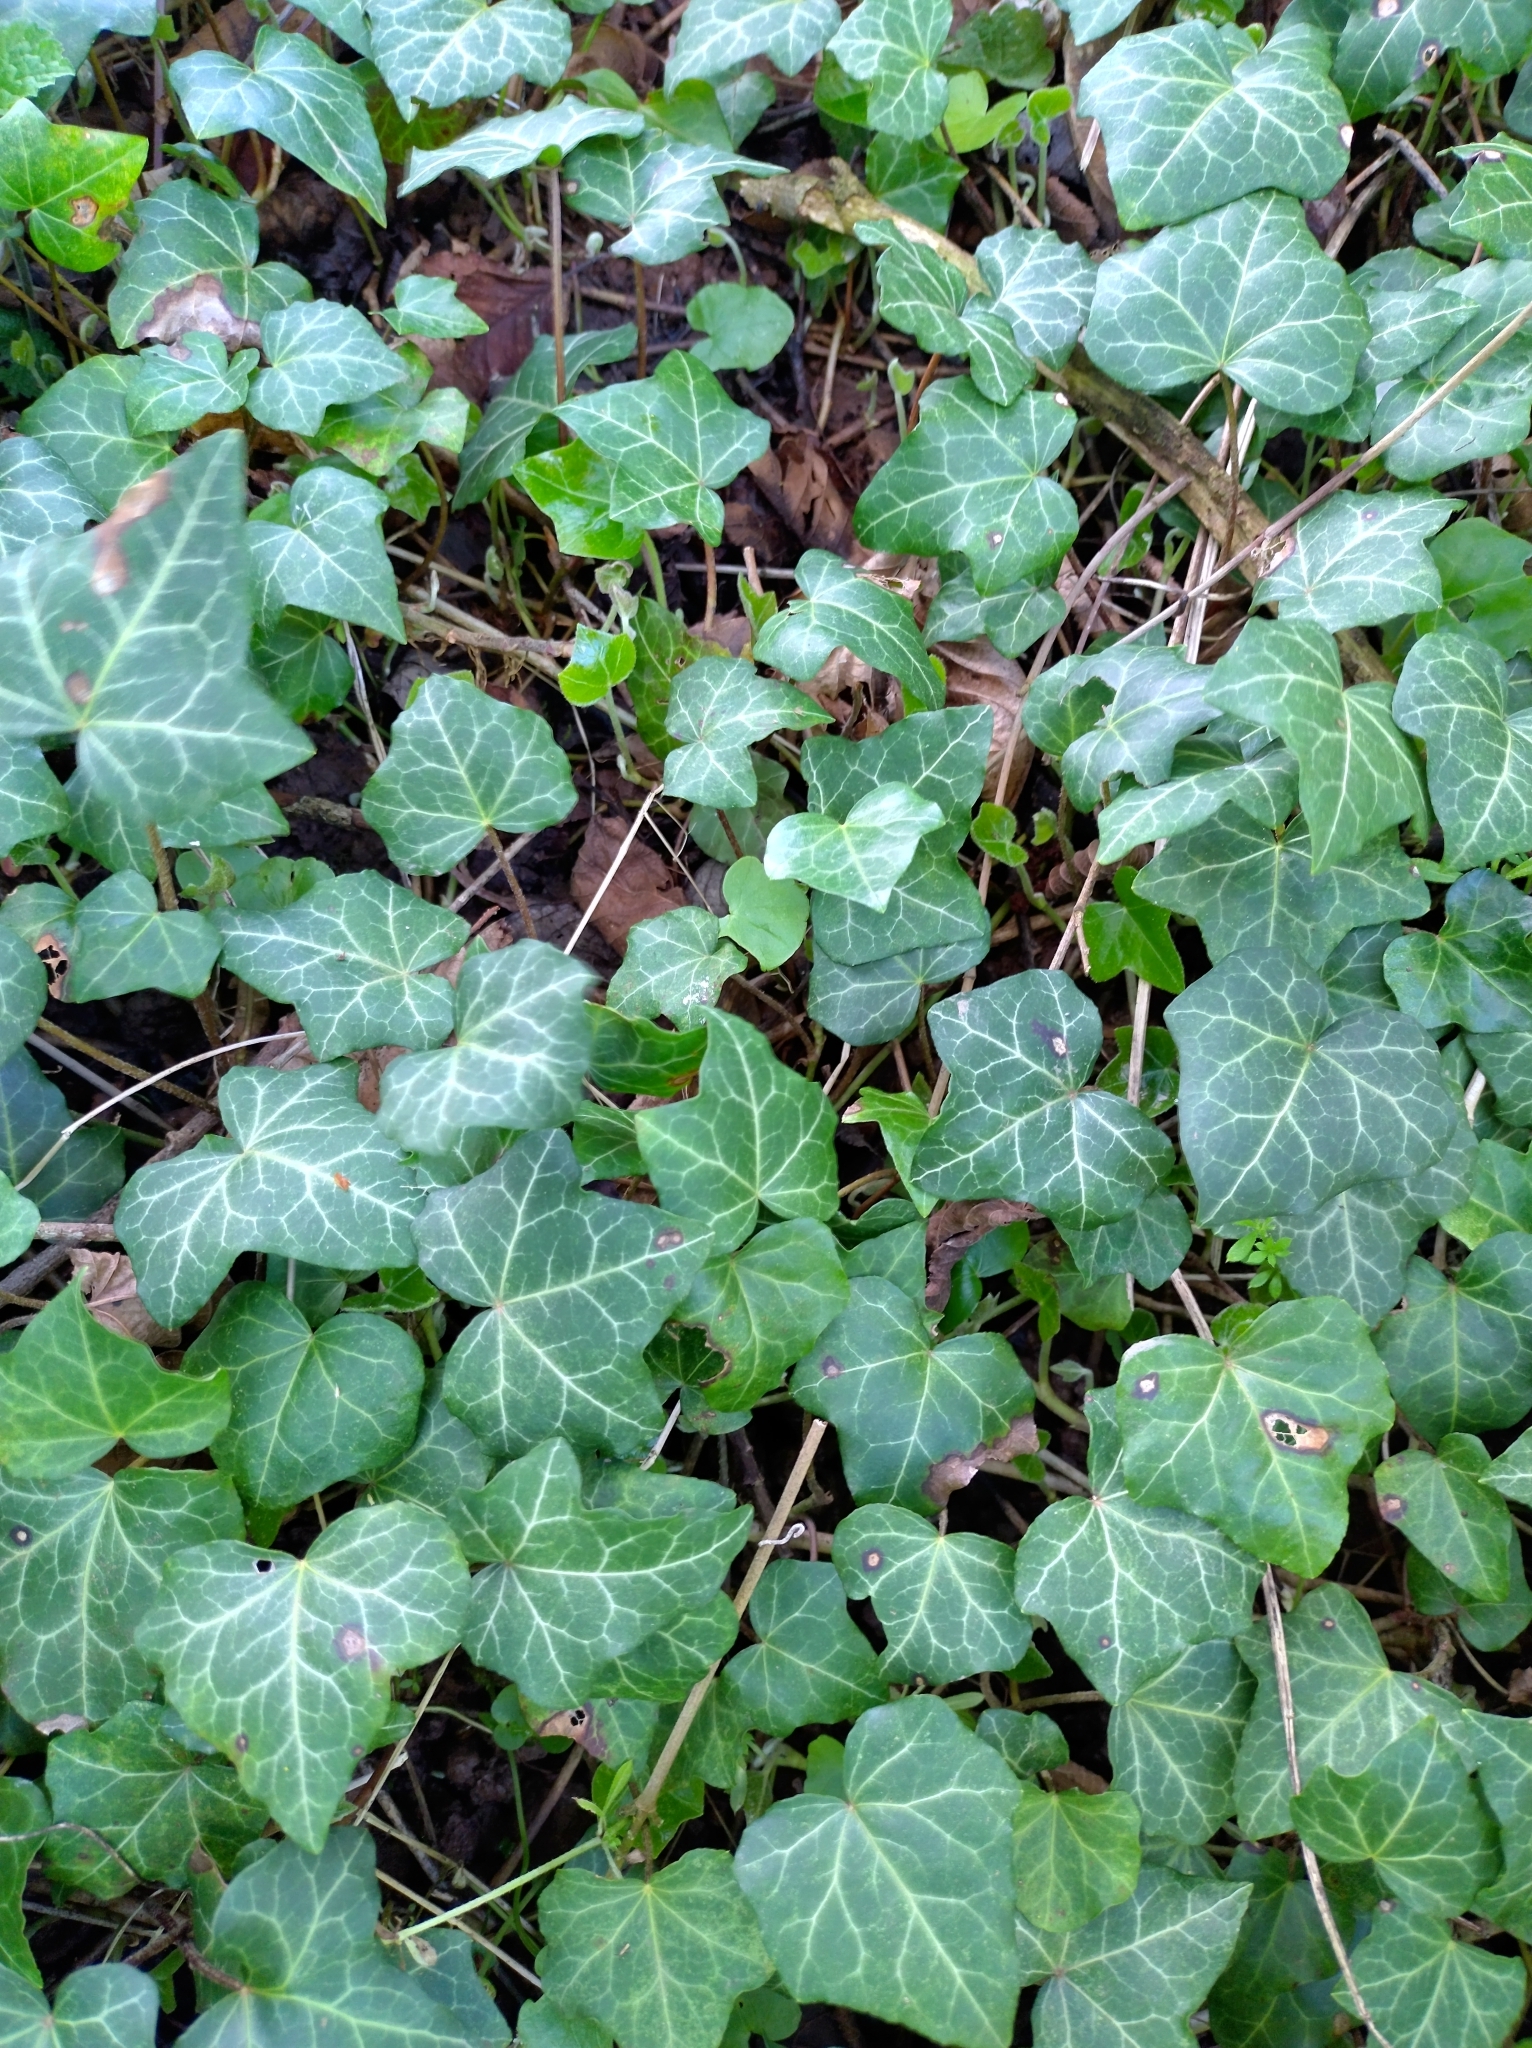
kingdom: Plantae
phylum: Tracheophyta
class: Magnoliopsida
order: Apiales
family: Araliaceae
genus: Hedera
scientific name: Hedera helix
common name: Ivy
